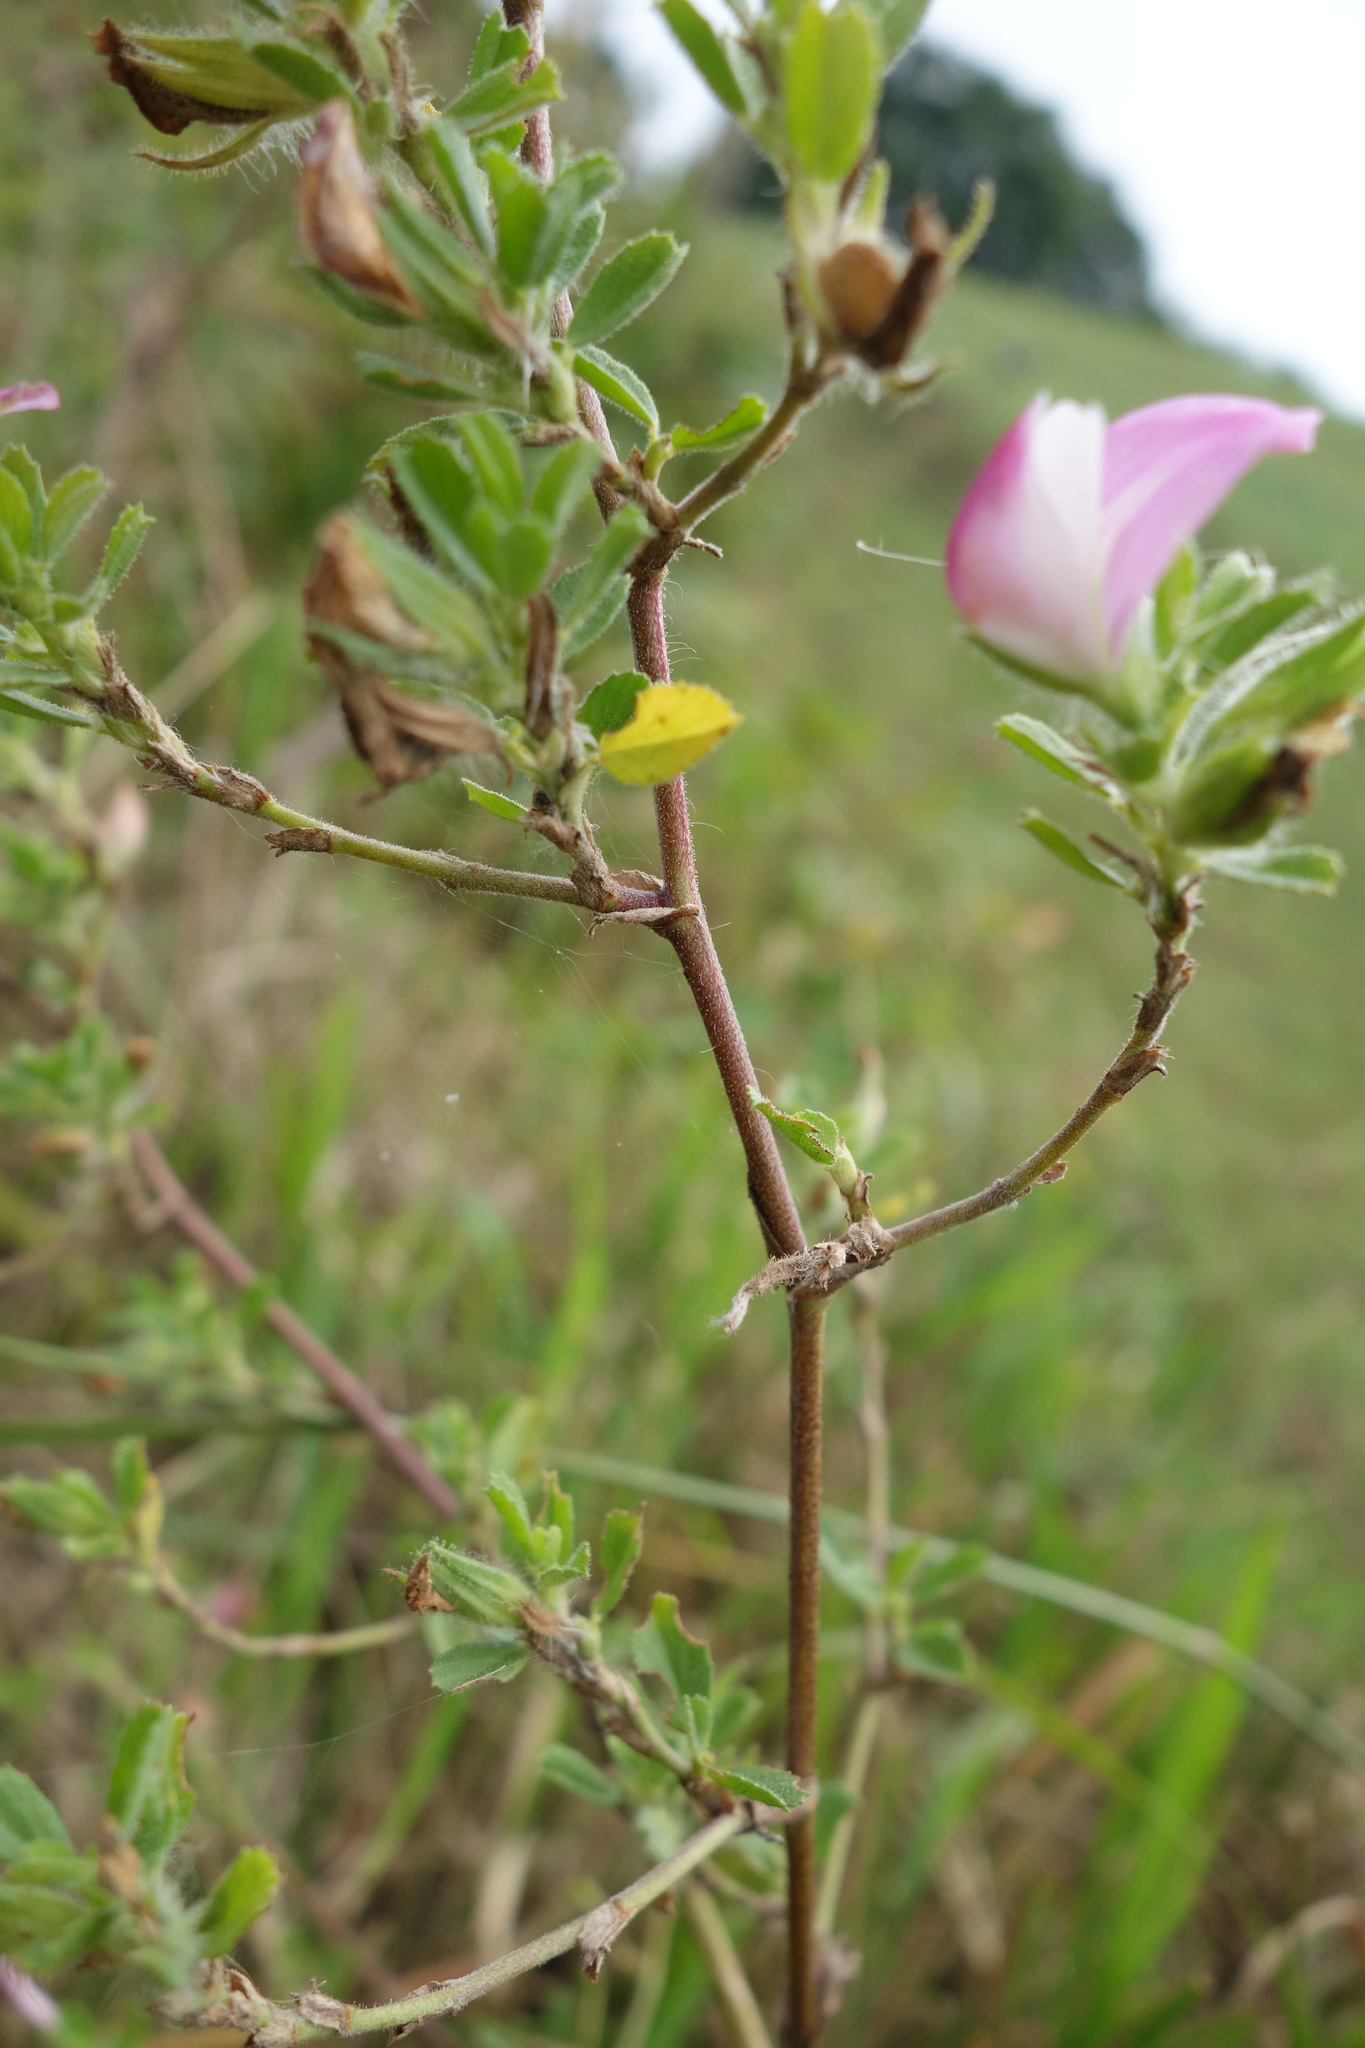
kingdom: Plantae
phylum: Tracheophyta
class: Magnoliopsida
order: Fabales
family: Fabaceae
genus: Ononis
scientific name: Ononis spinosa
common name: Spiny restharrow
